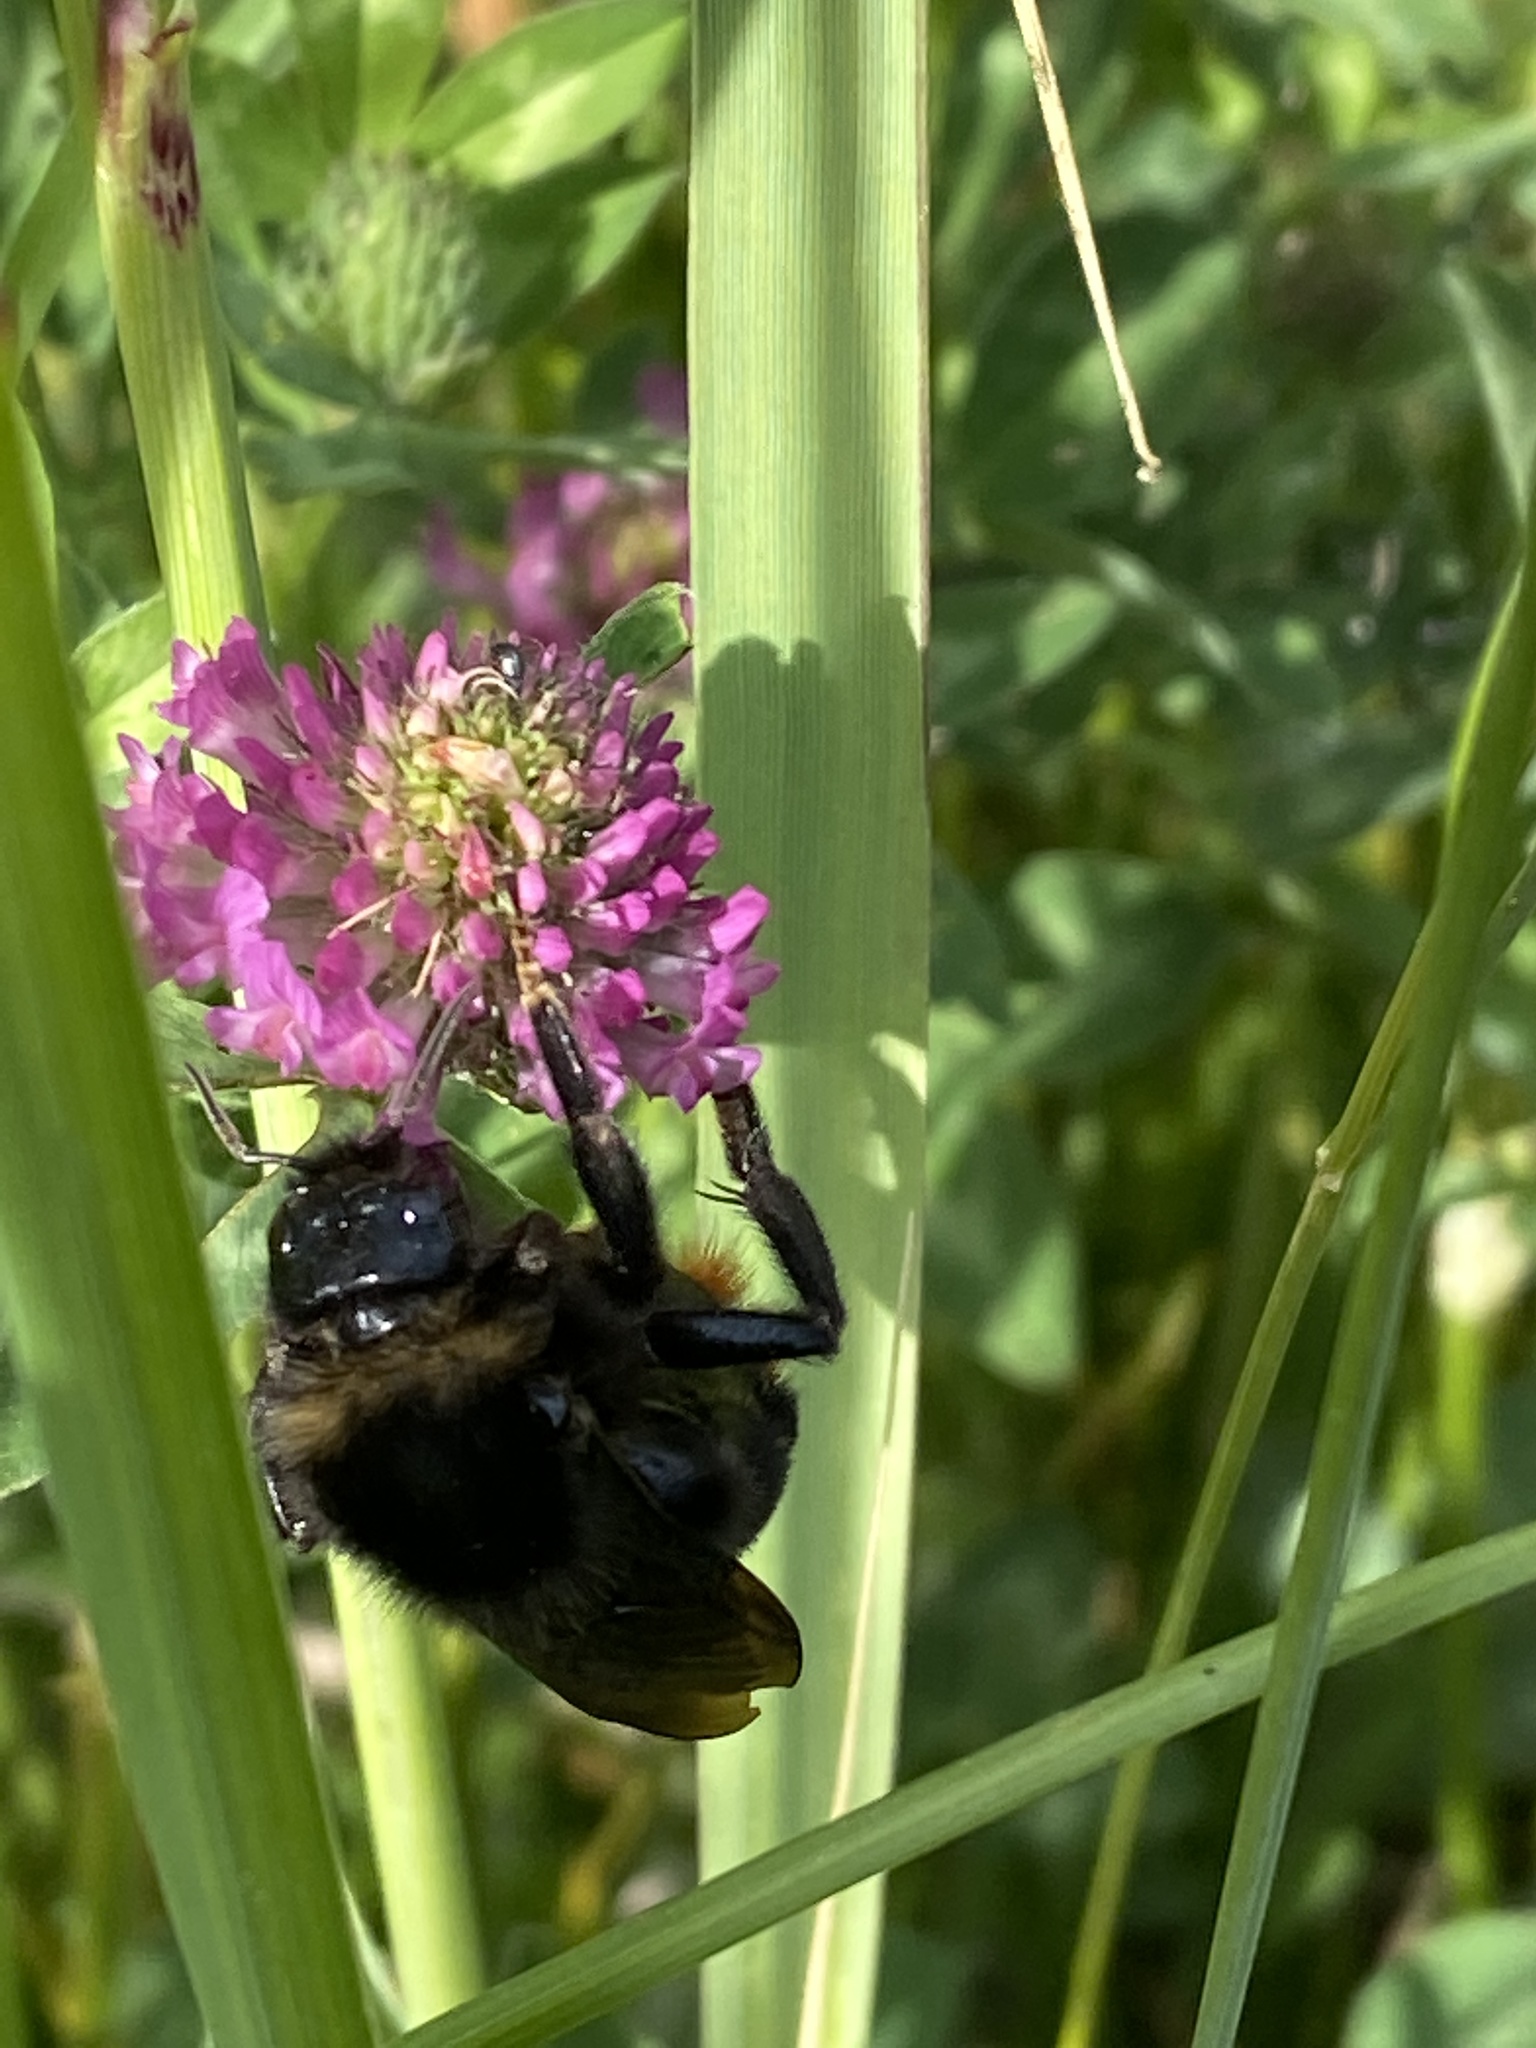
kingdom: Animalia
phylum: Arthropoda
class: Insecta
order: Hymenoptera
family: Apidae
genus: Bombus
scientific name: Bombus rupestris
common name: Hill cuckoo-bee
